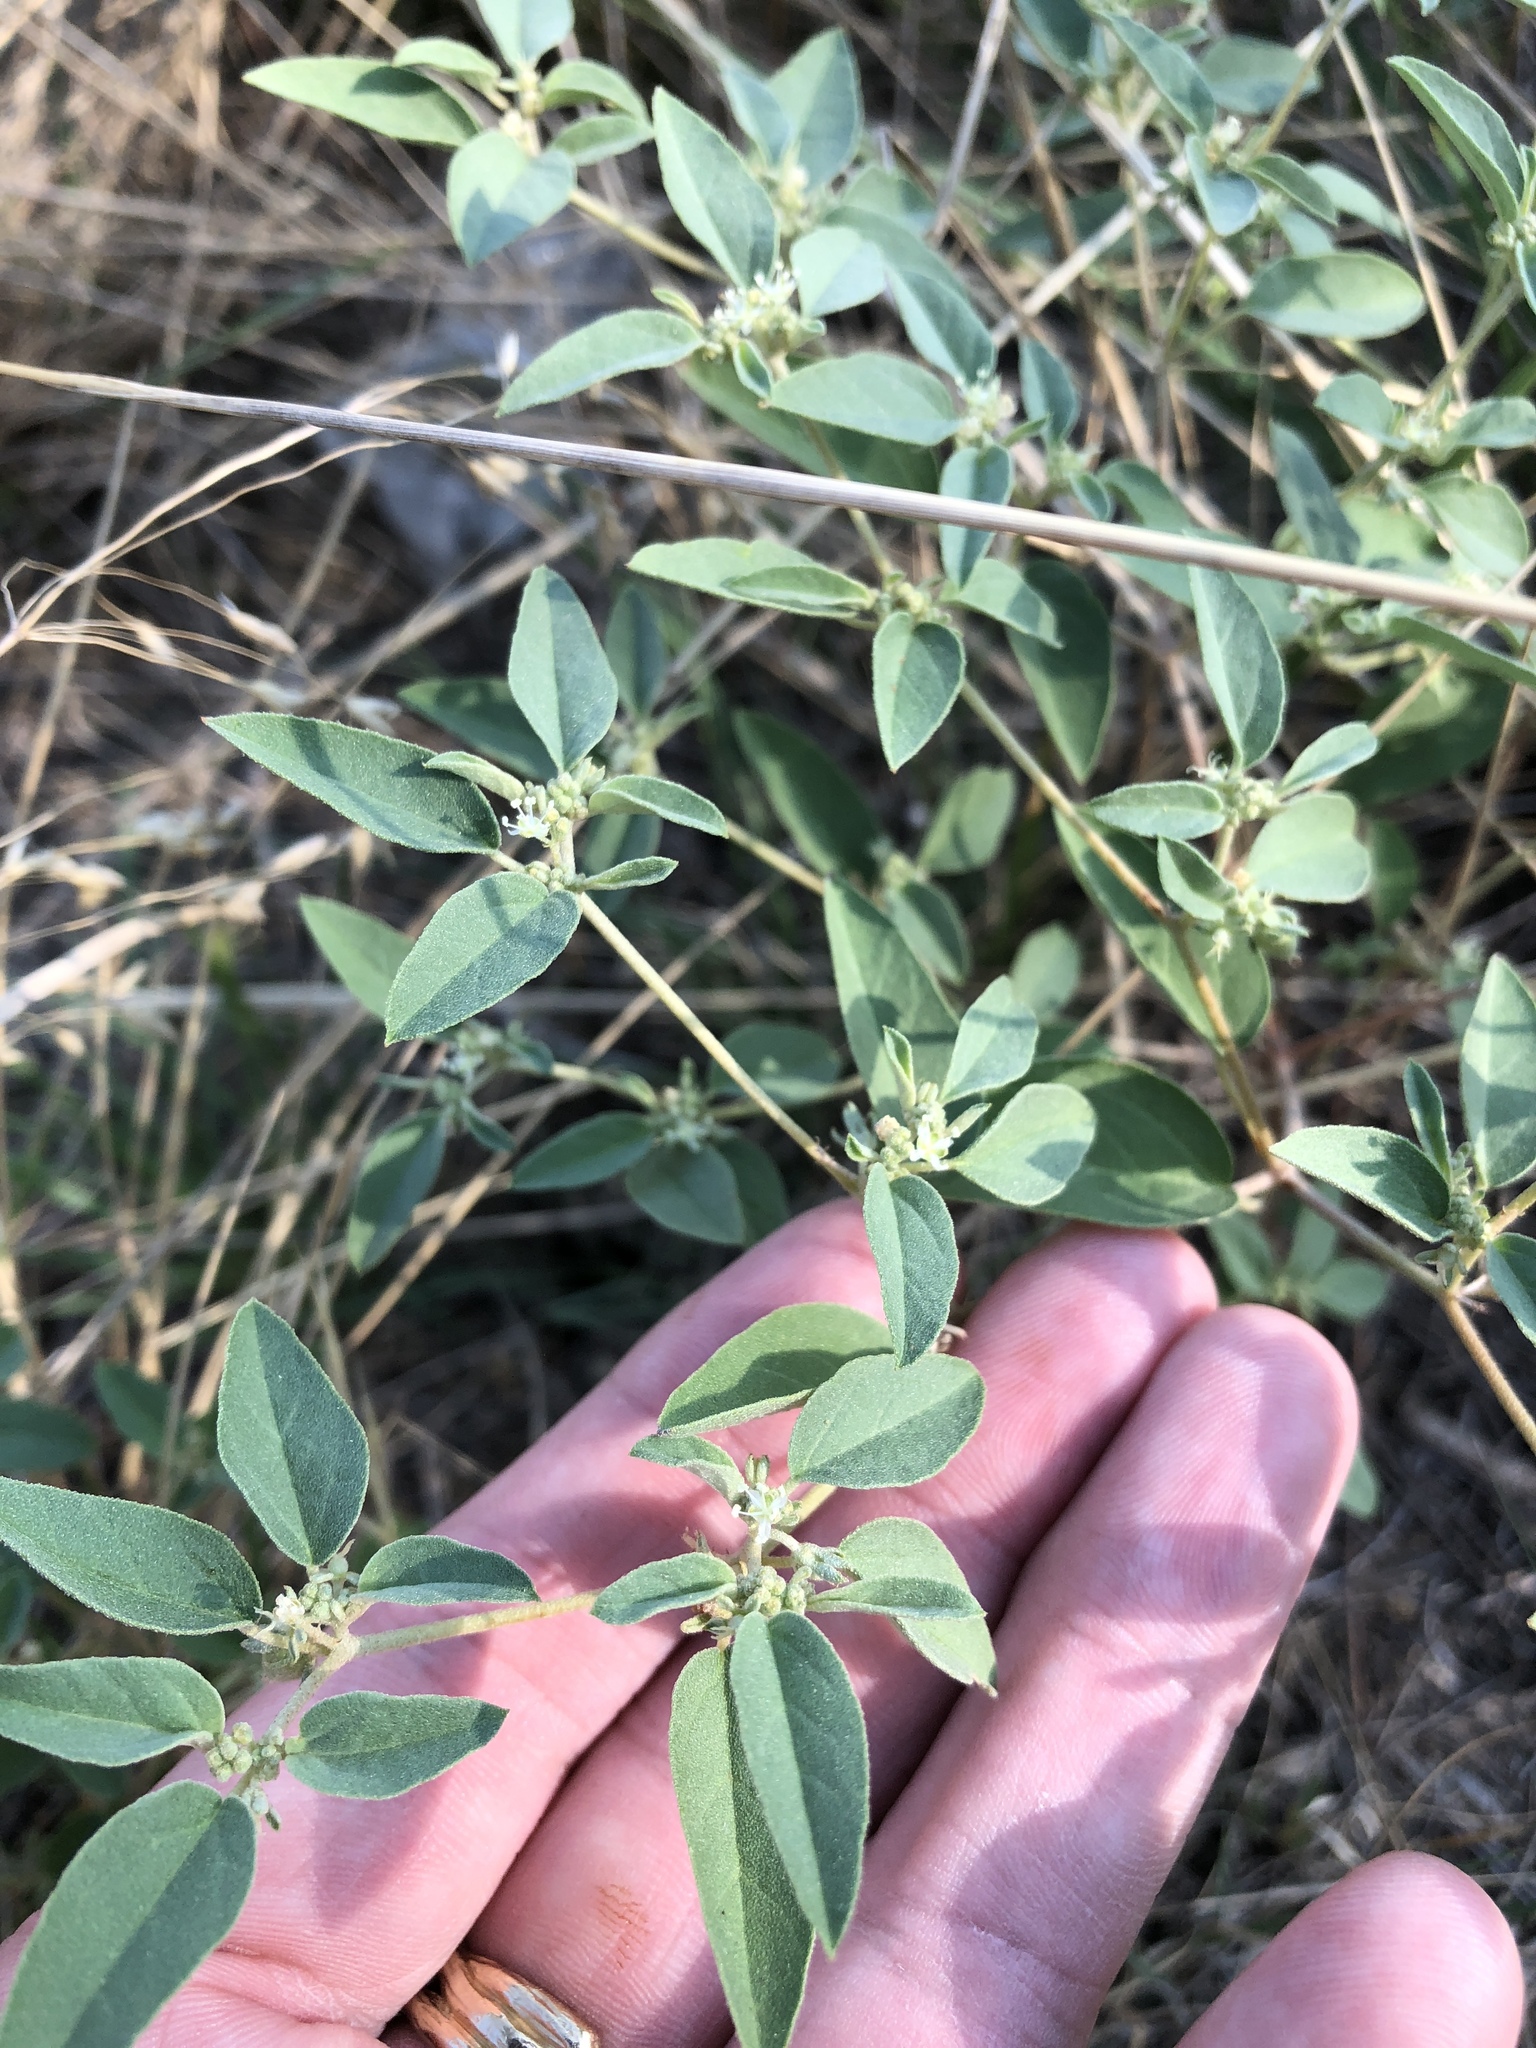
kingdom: Plantae
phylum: Tracheophyta
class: Magnoliopsida
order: Malpighiales
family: Euphorbiaceae
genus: Croton
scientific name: Croton monanthogynus
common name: One-seed croton
